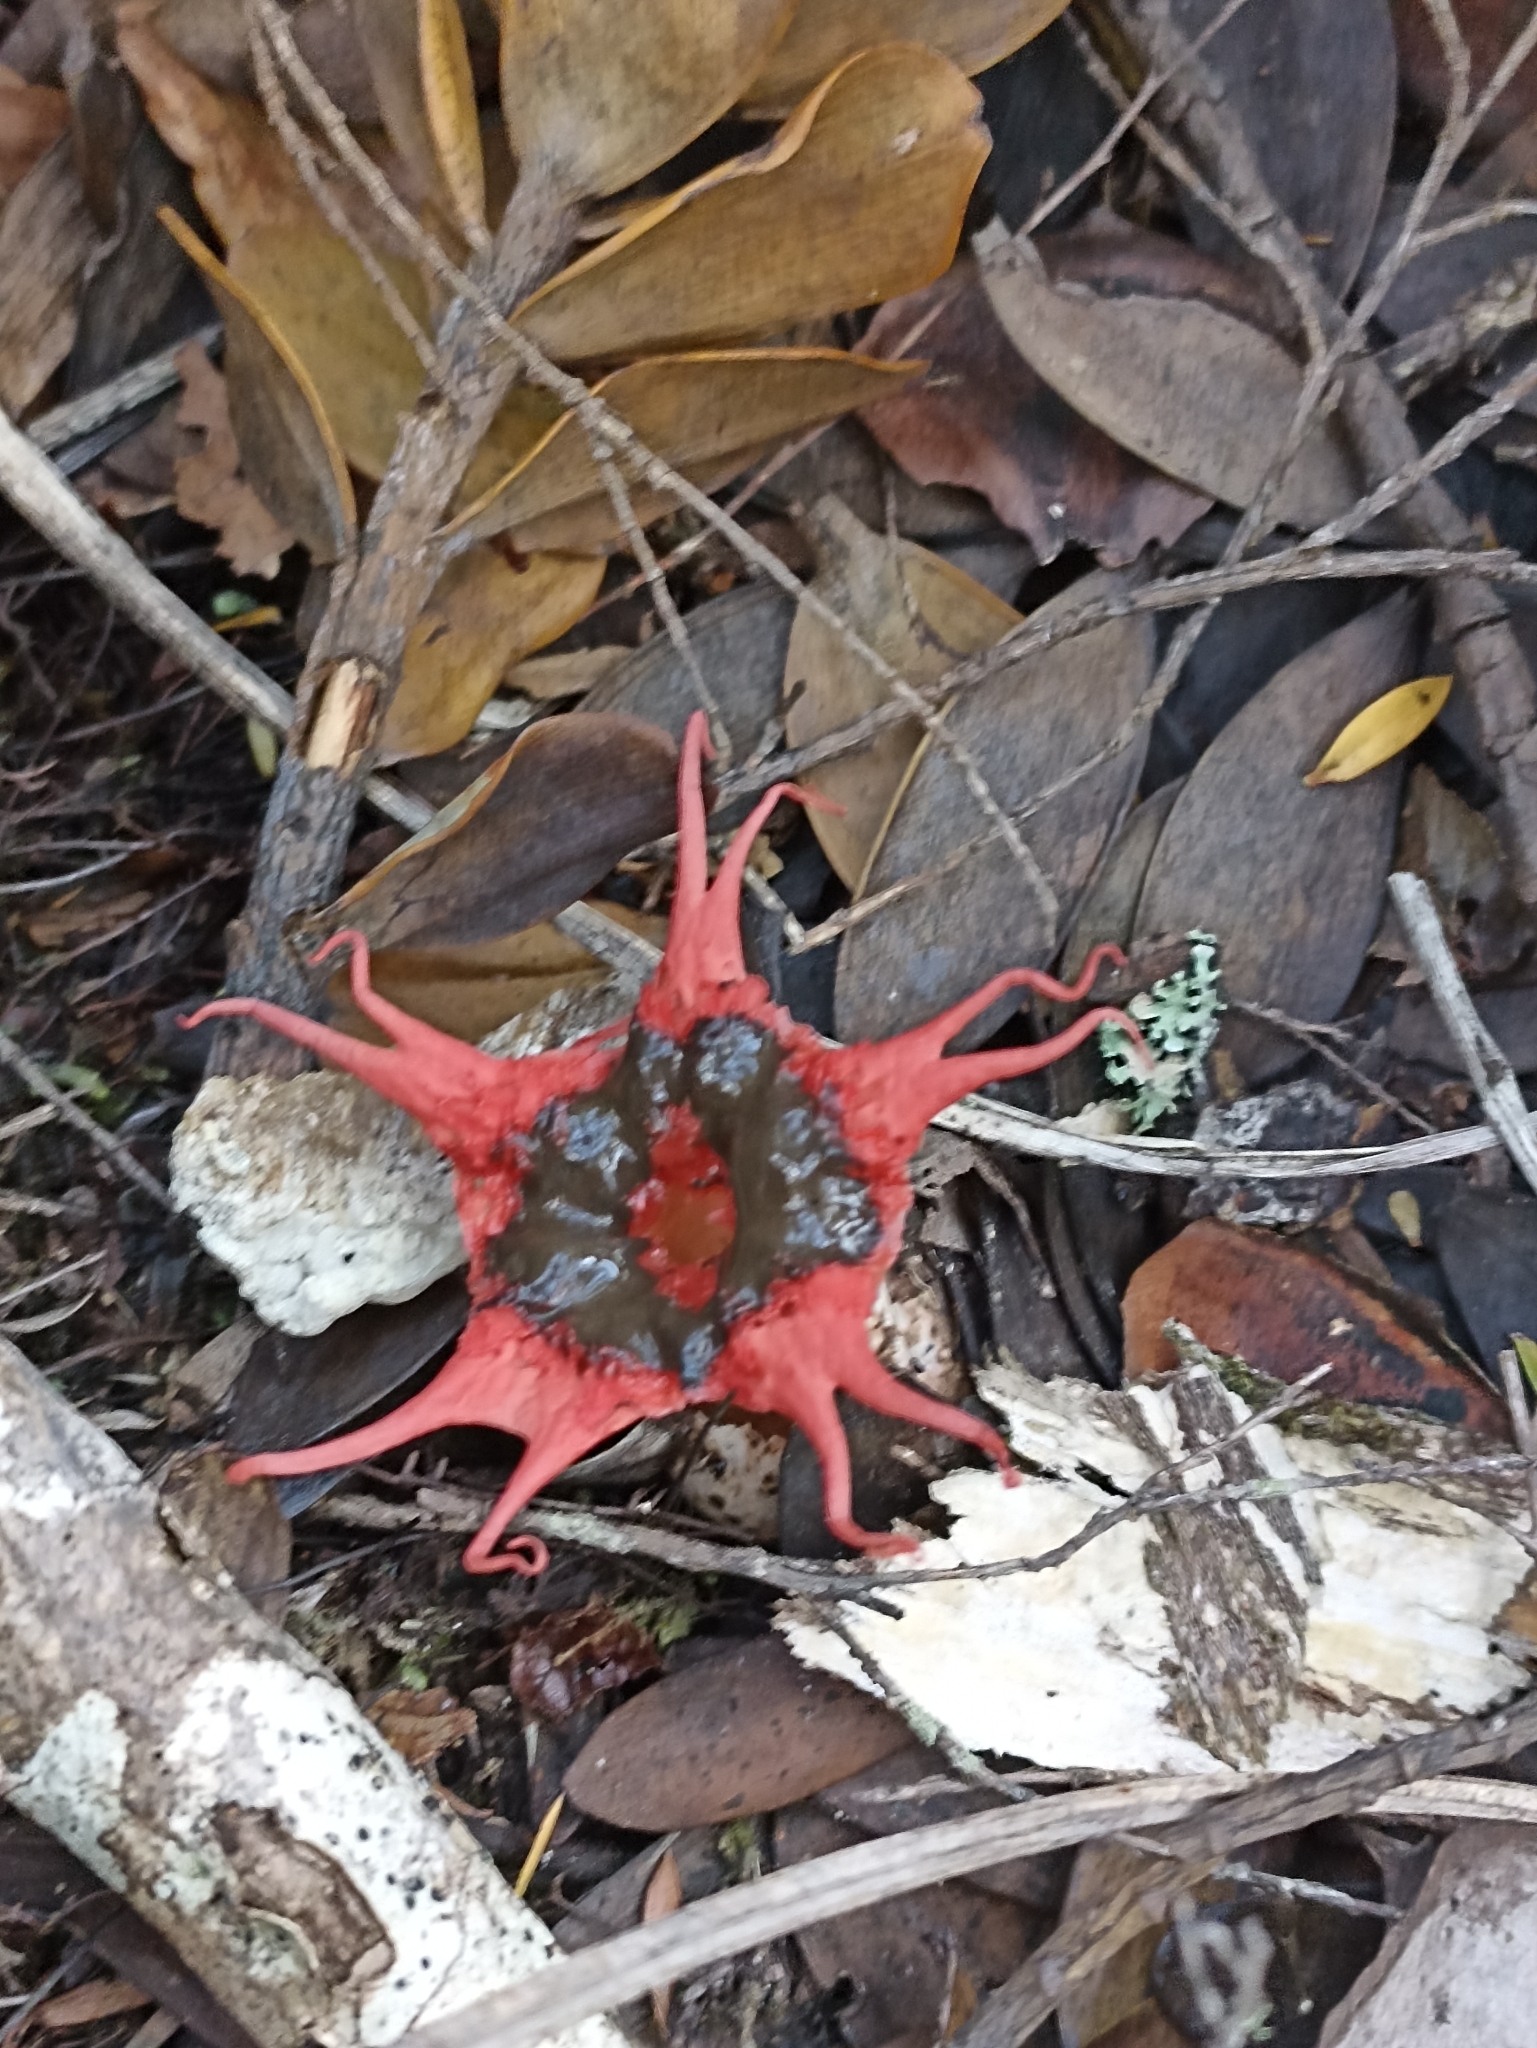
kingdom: Fungi
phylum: Basidiomycota
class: Agaricomycetes
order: Phallales
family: Phallaceae
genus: Aseroe
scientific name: Aseroe rubra
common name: Starfish fungus
